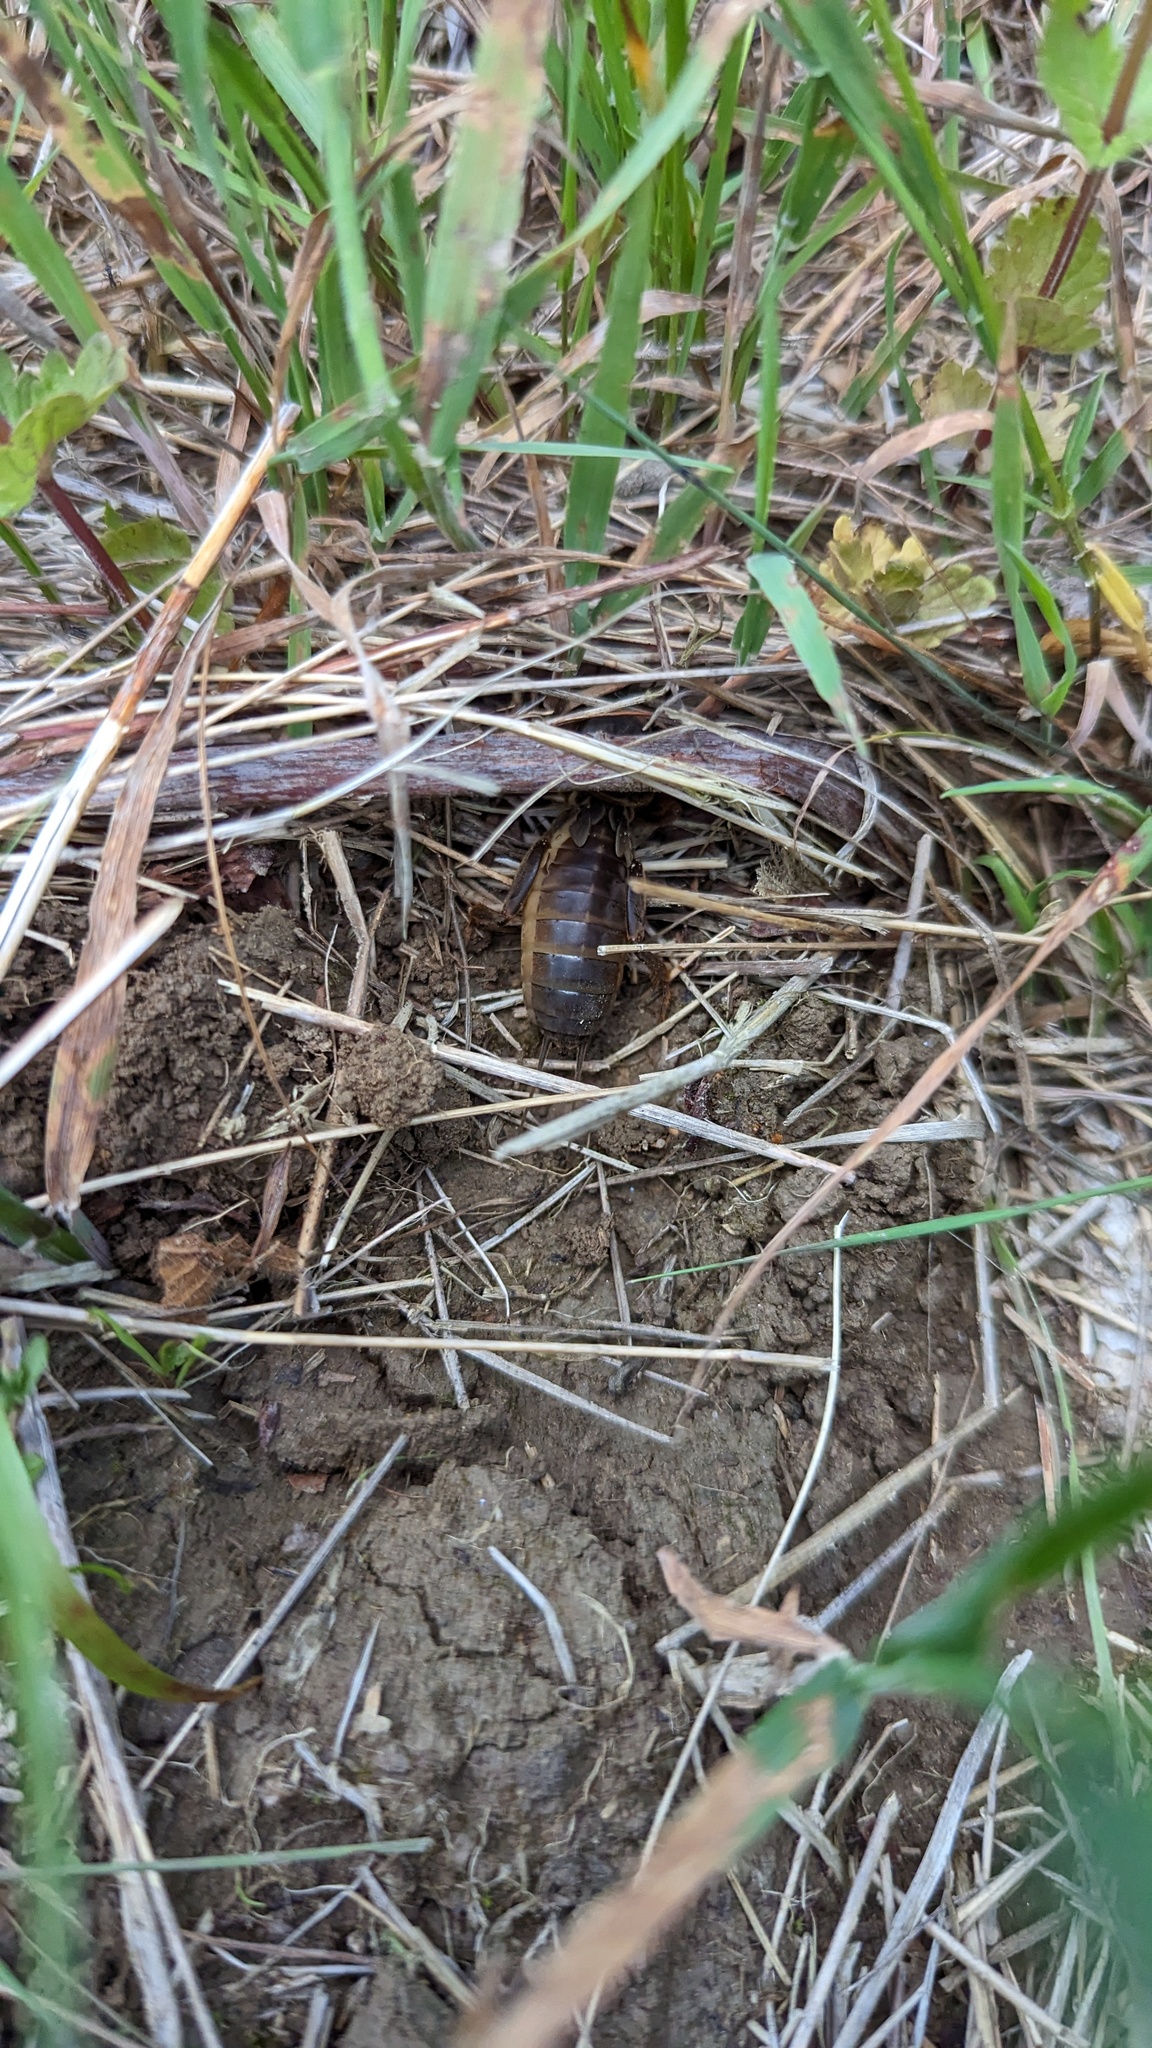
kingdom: Animalia
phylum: Arthropoda
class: Insecta
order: Orthoptera
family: Gryllotalpidae
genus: Gryllotalpa
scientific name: Gryllotalpa gryllotalpa
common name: European mole cricket
